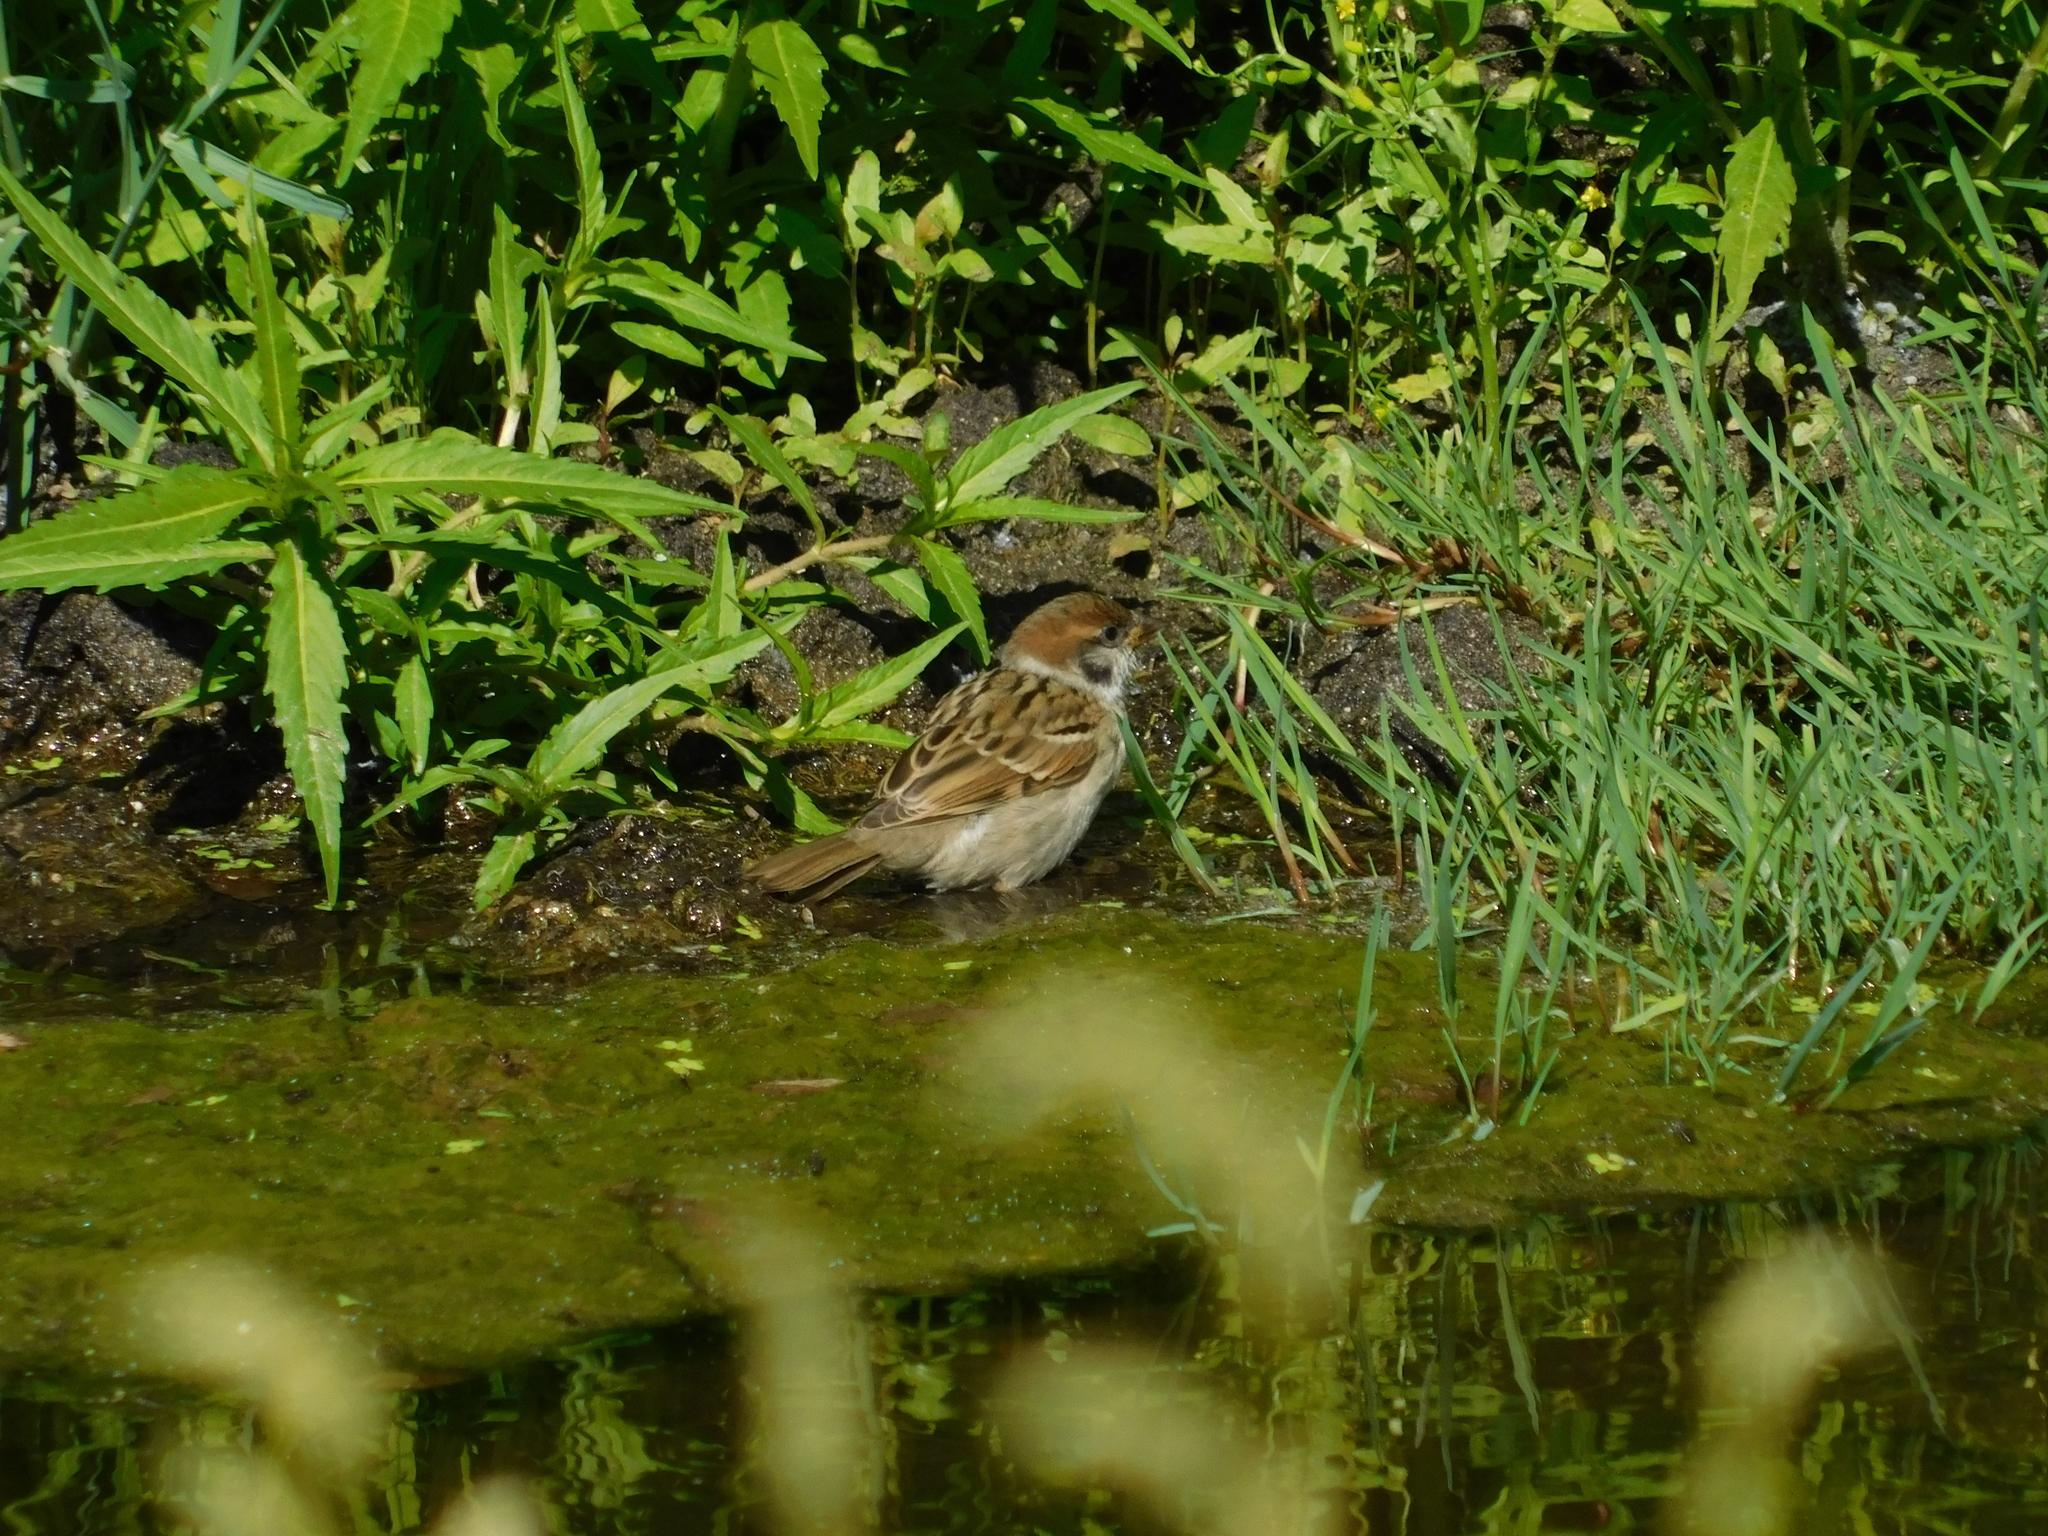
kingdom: Animalia
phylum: Chordata
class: Aves
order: Passeriformes
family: Passeridae
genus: Passer
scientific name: Passer montanus
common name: Eurasian tree sparrow
